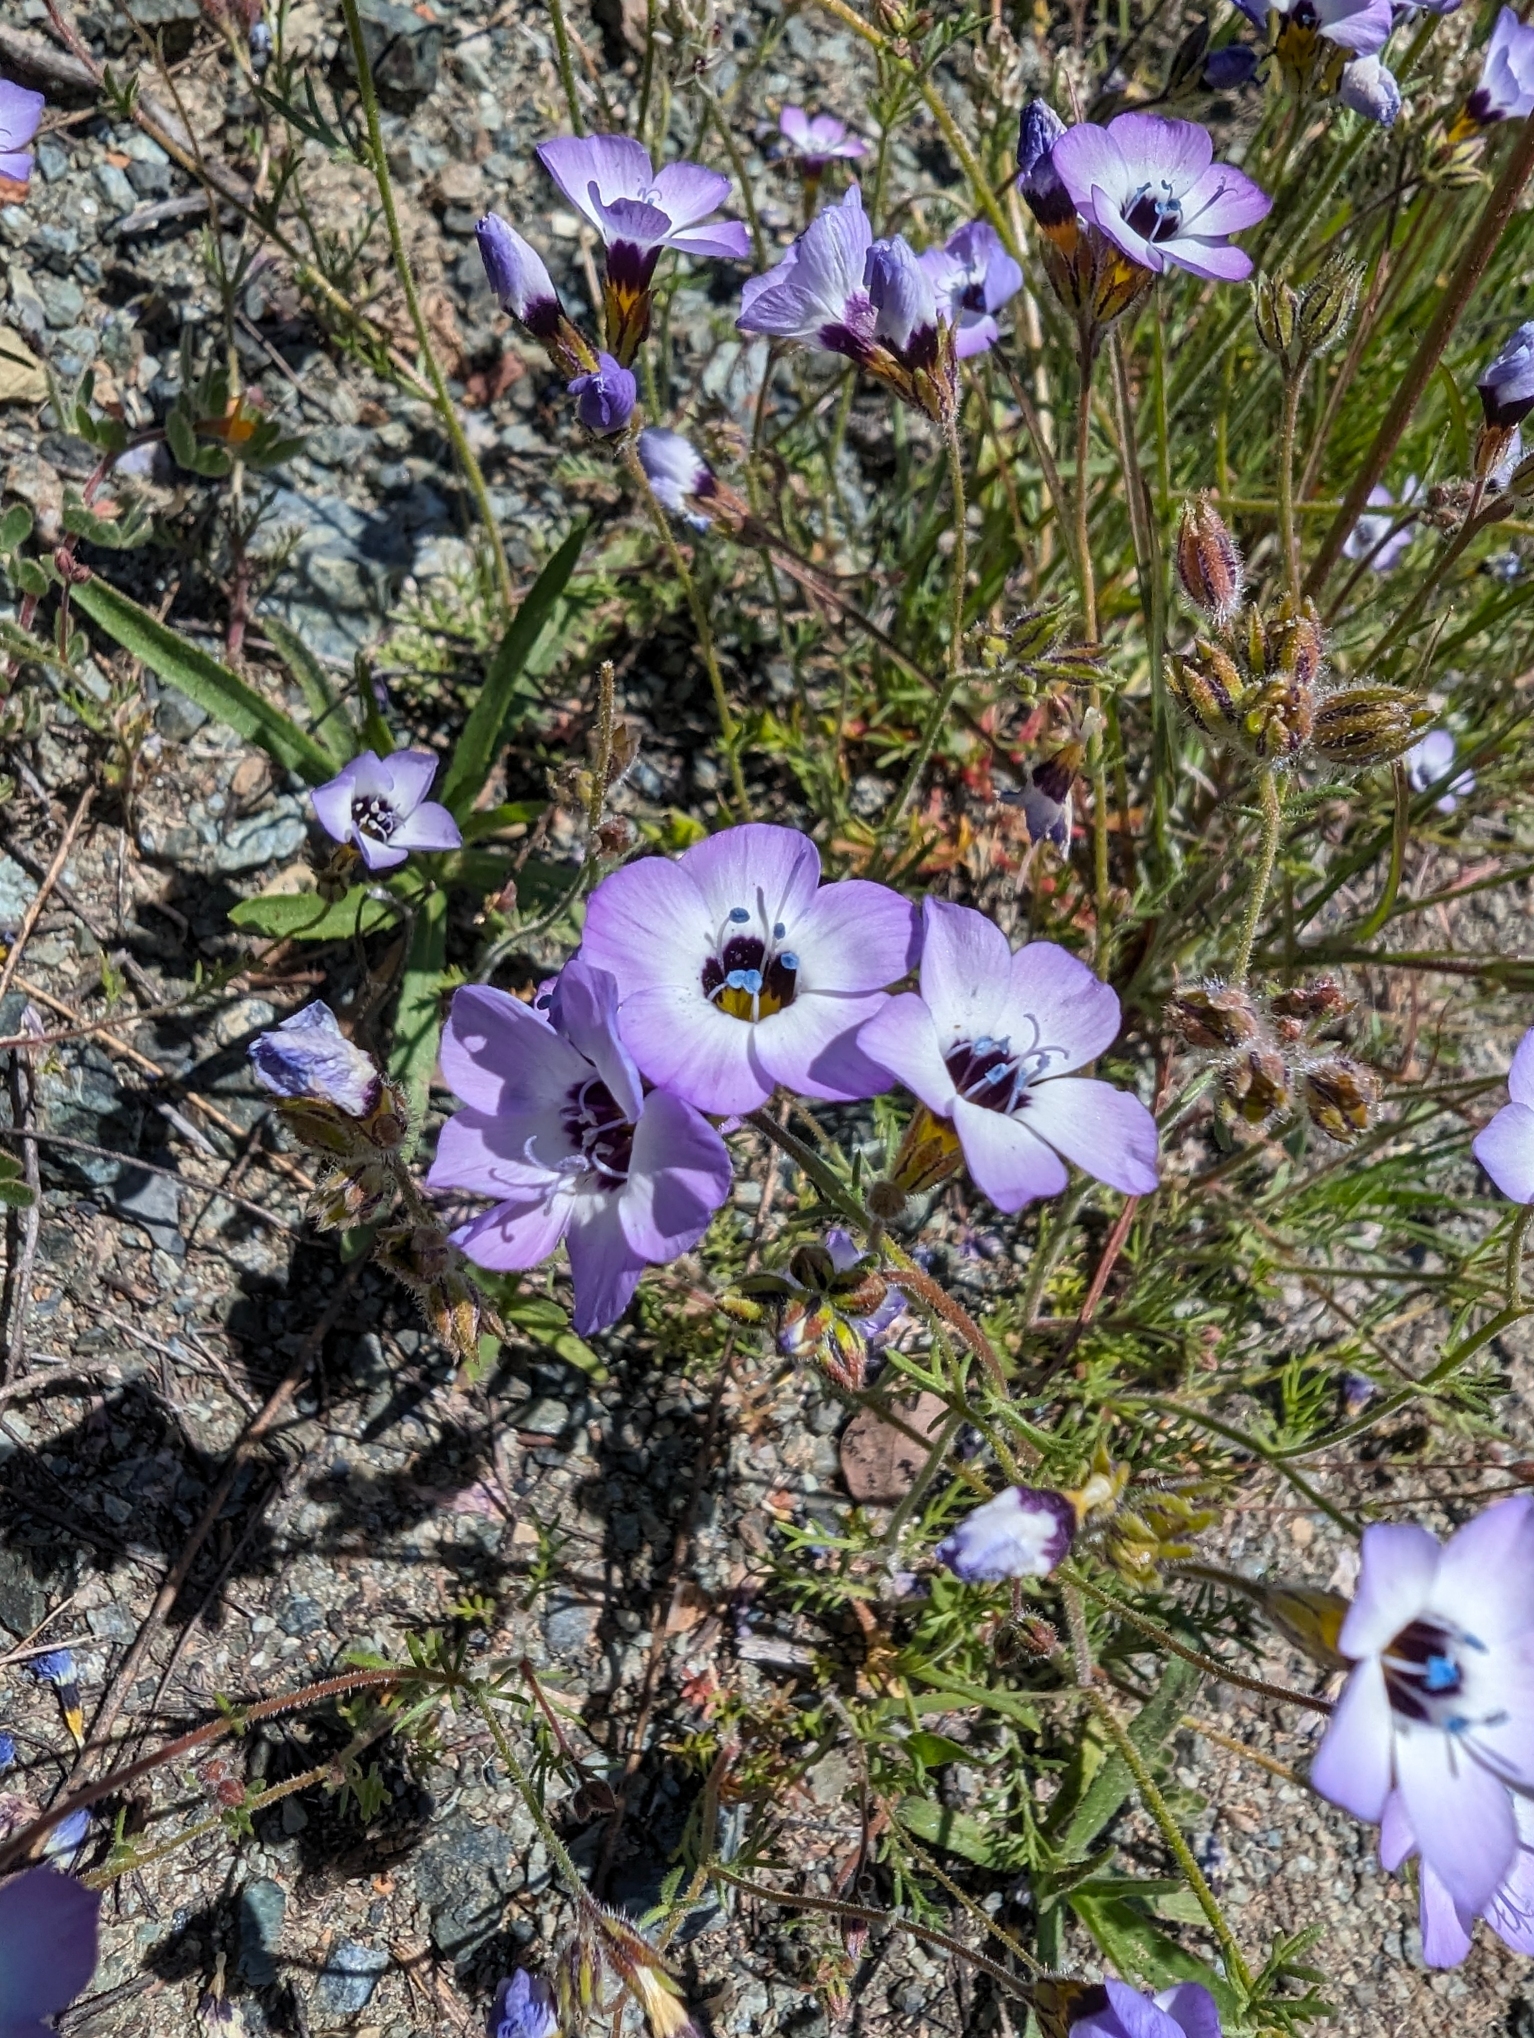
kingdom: Plantae
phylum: Tracheophyta
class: Magnoliopsida
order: Ericales
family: Polemoniaceae
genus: Gilia
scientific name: Gilia tricolor
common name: Bird's-eyes
